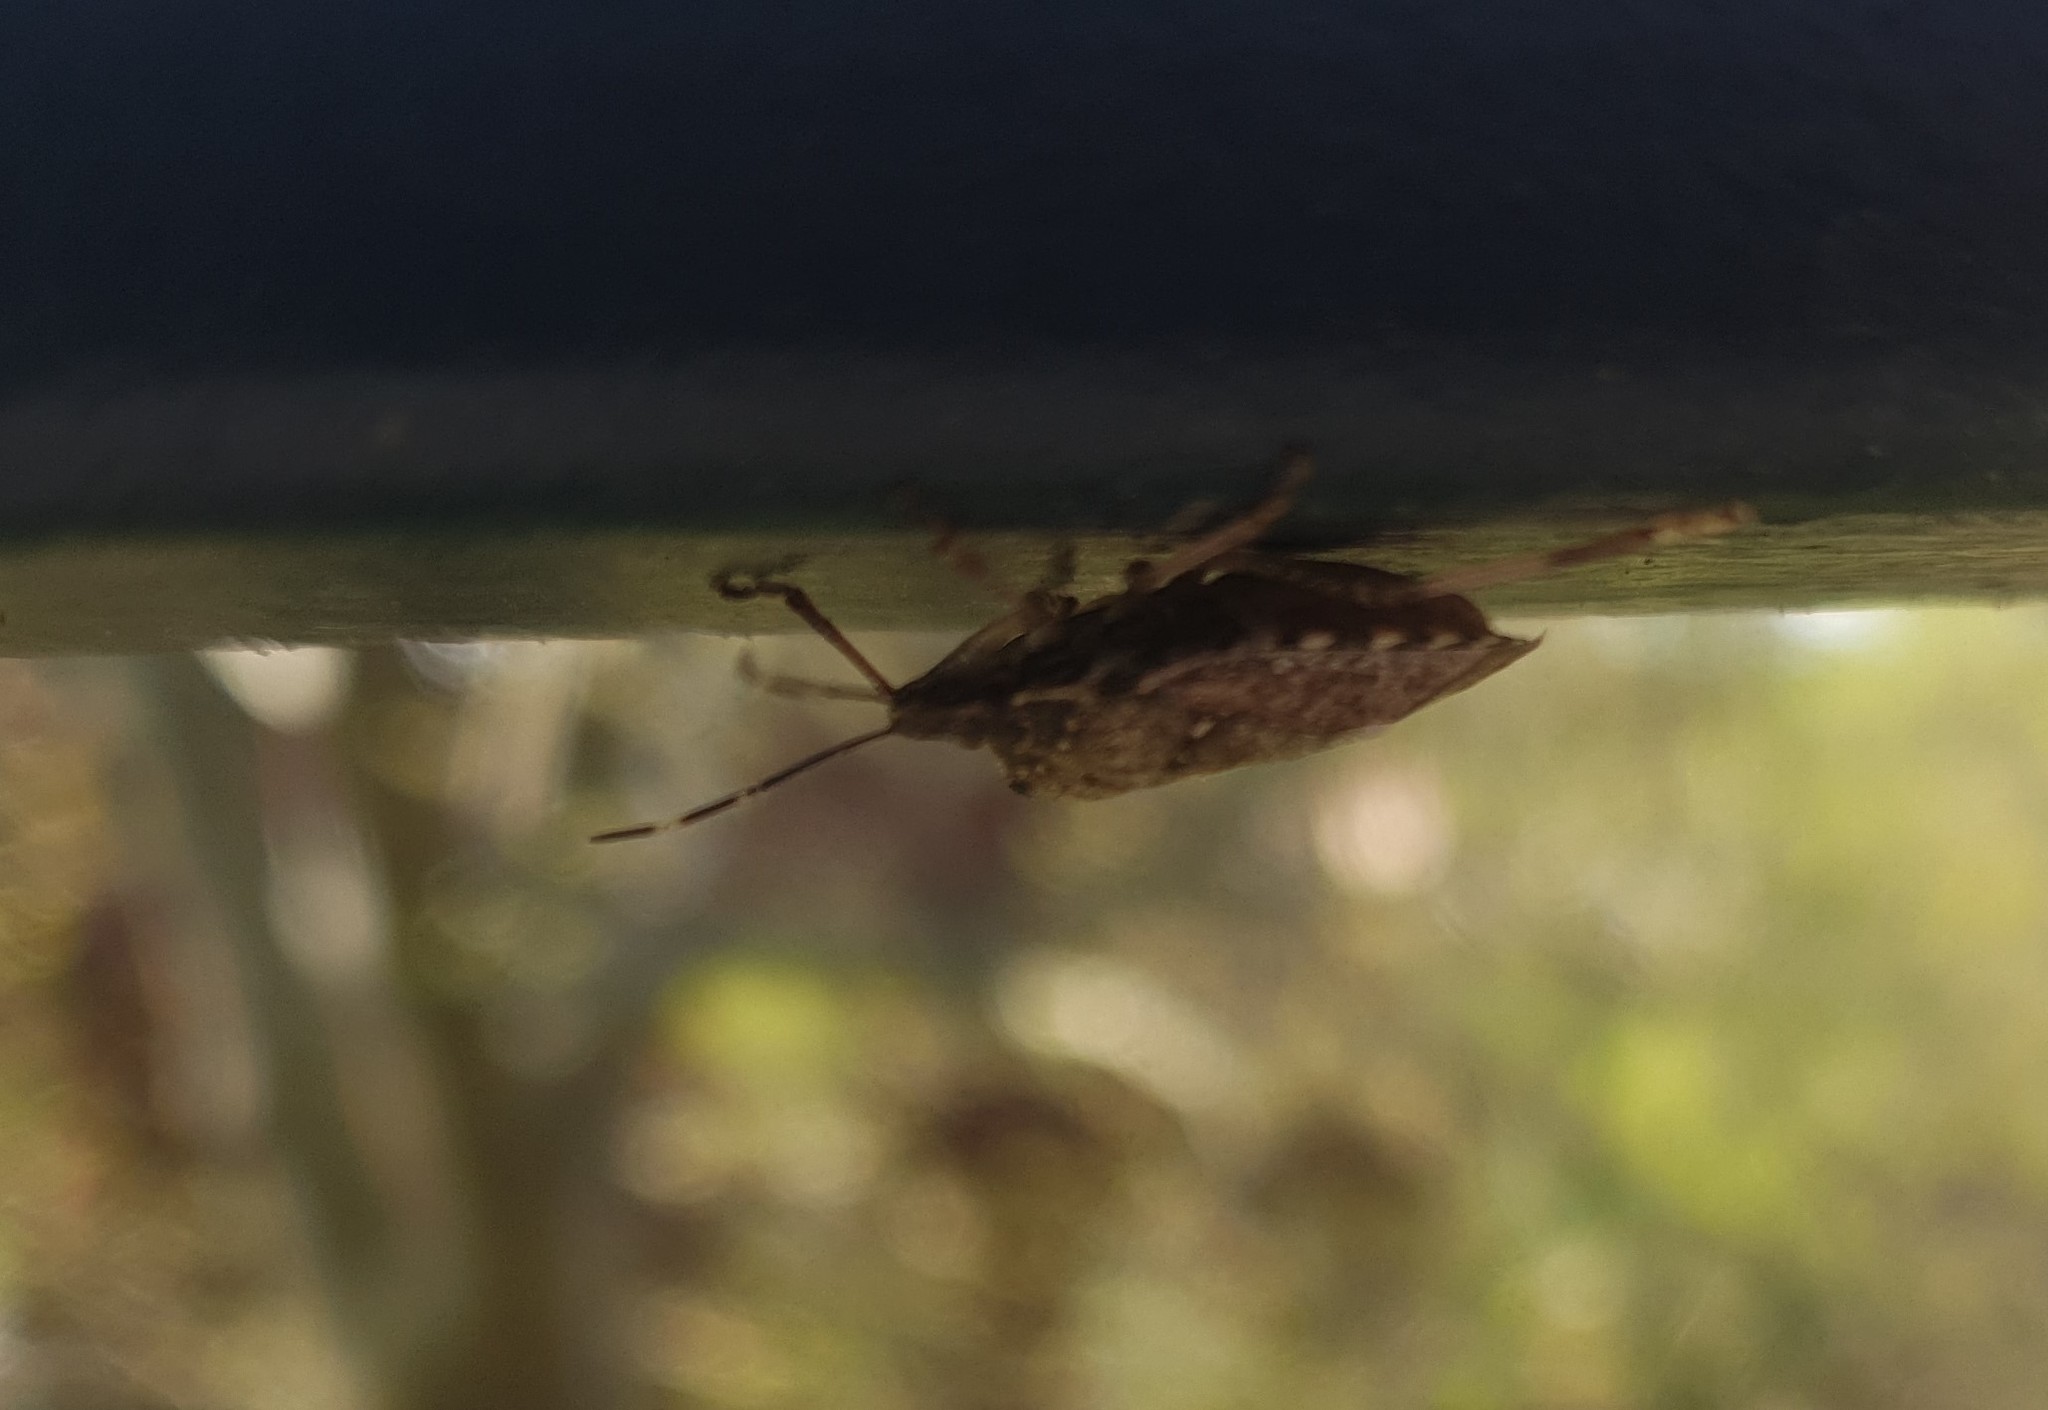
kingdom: Animalia
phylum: Arthropoda
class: Insecta
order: Hemiptera
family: Pentatomidae
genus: Halyomorpha
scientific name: Halyomorpha halys
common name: Brown marmorated stink bug
